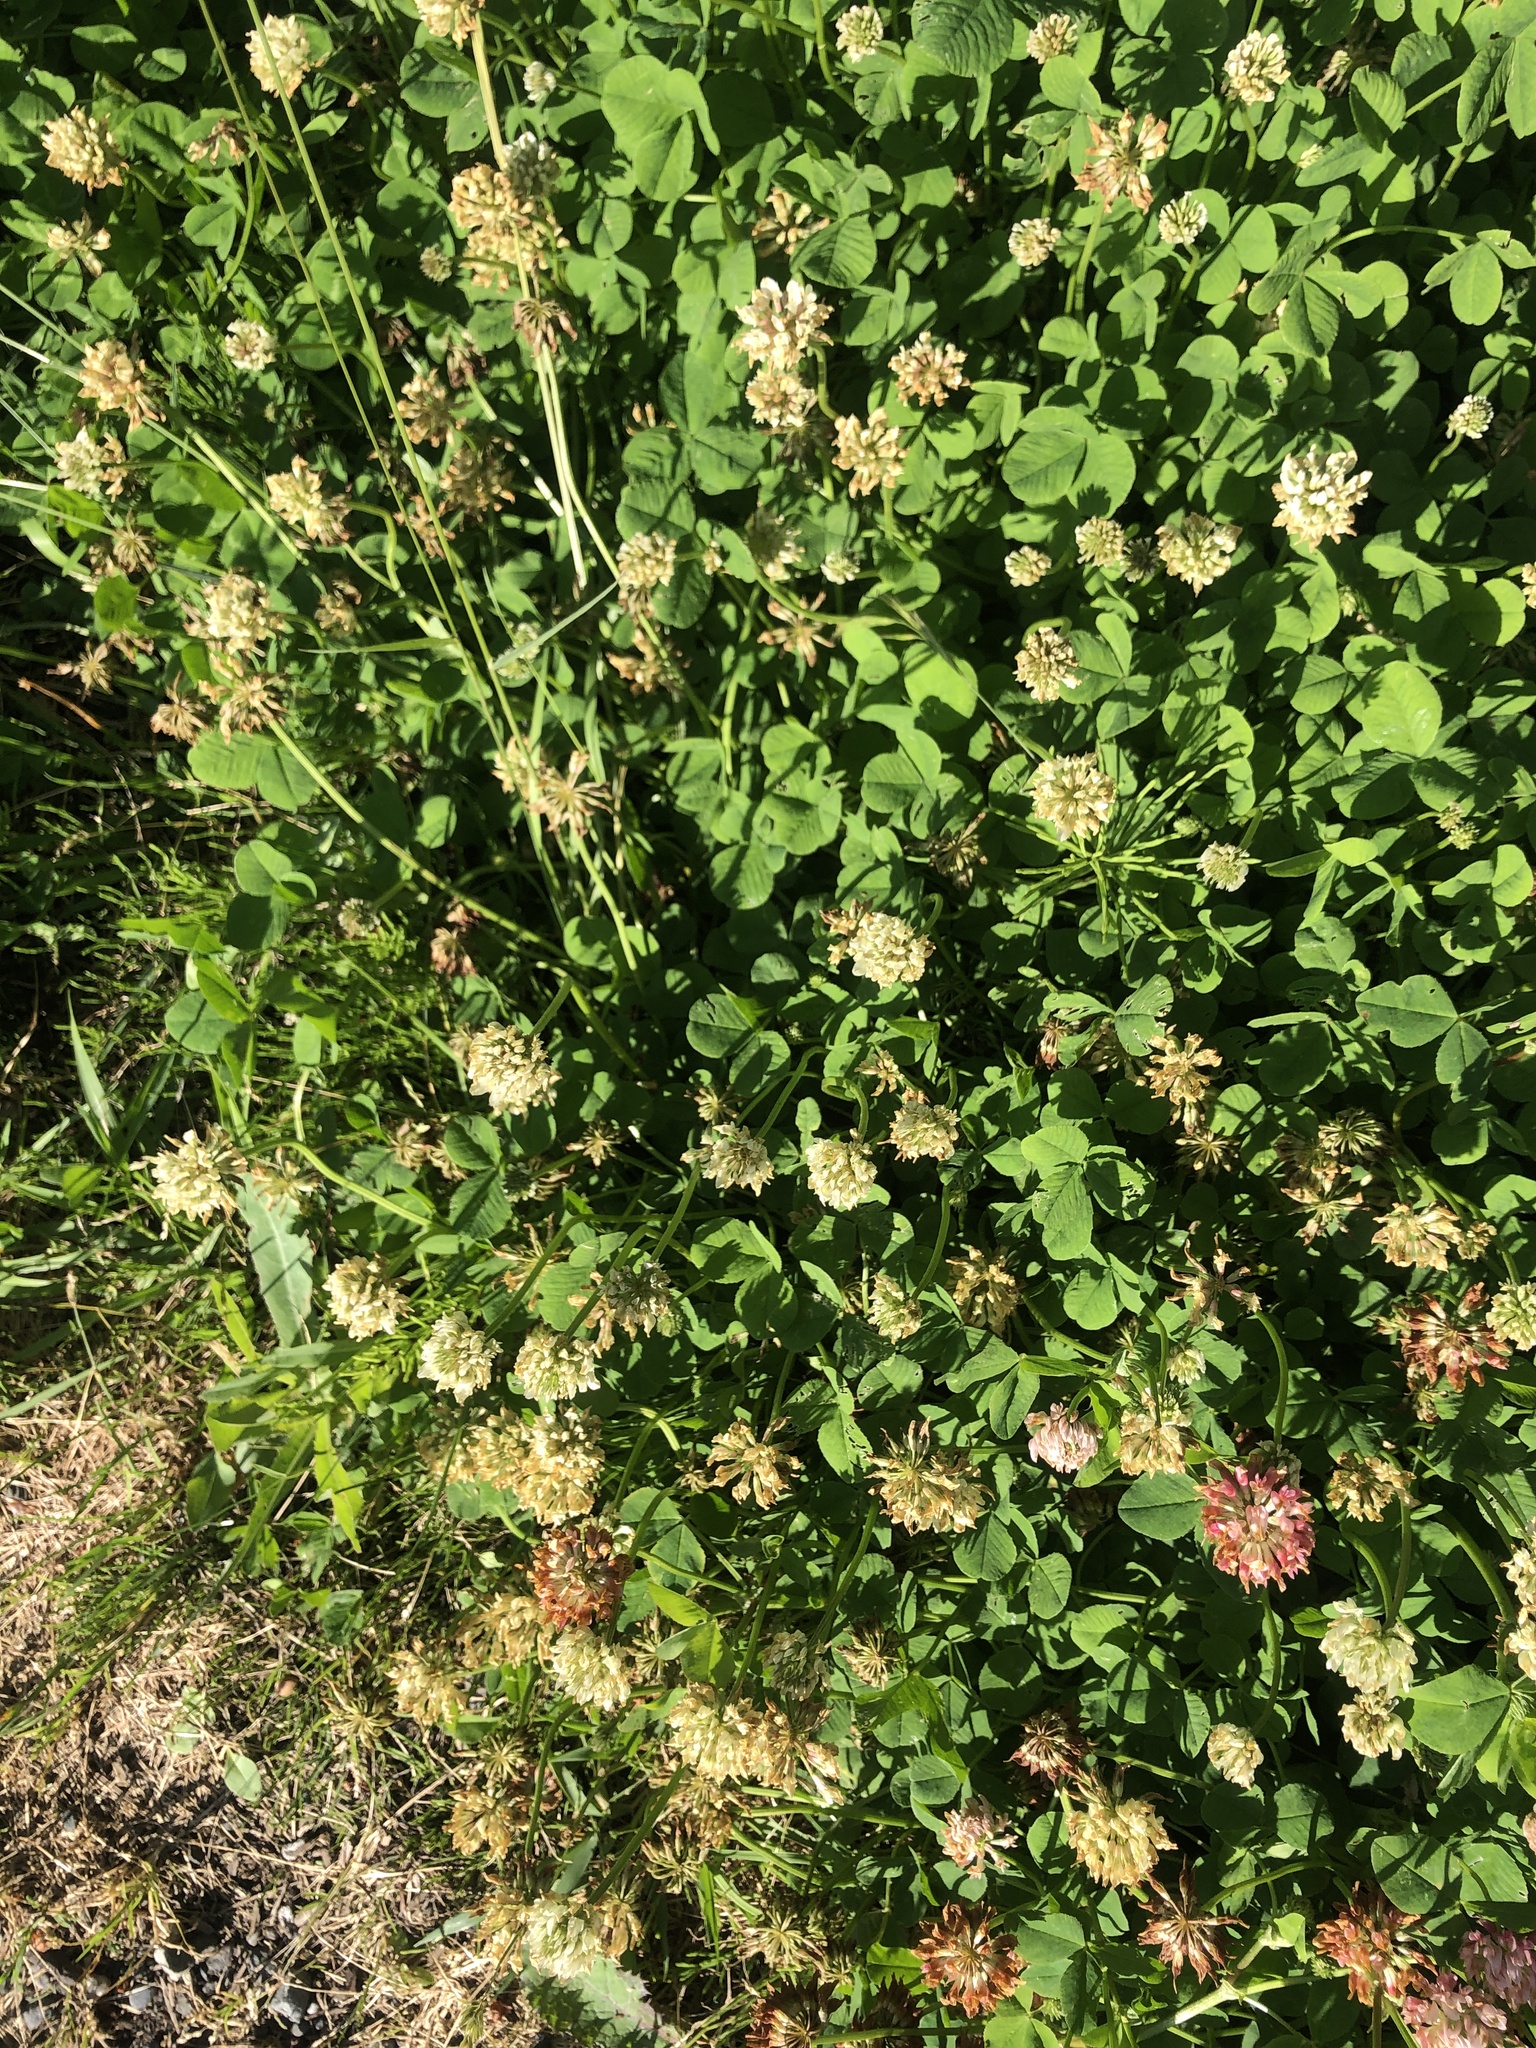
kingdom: Plantae
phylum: Tracheophyta
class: Magnoliopsida
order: Fabales
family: Fabaceae
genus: Trifolium
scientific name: Trifolium repens
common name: White clover
